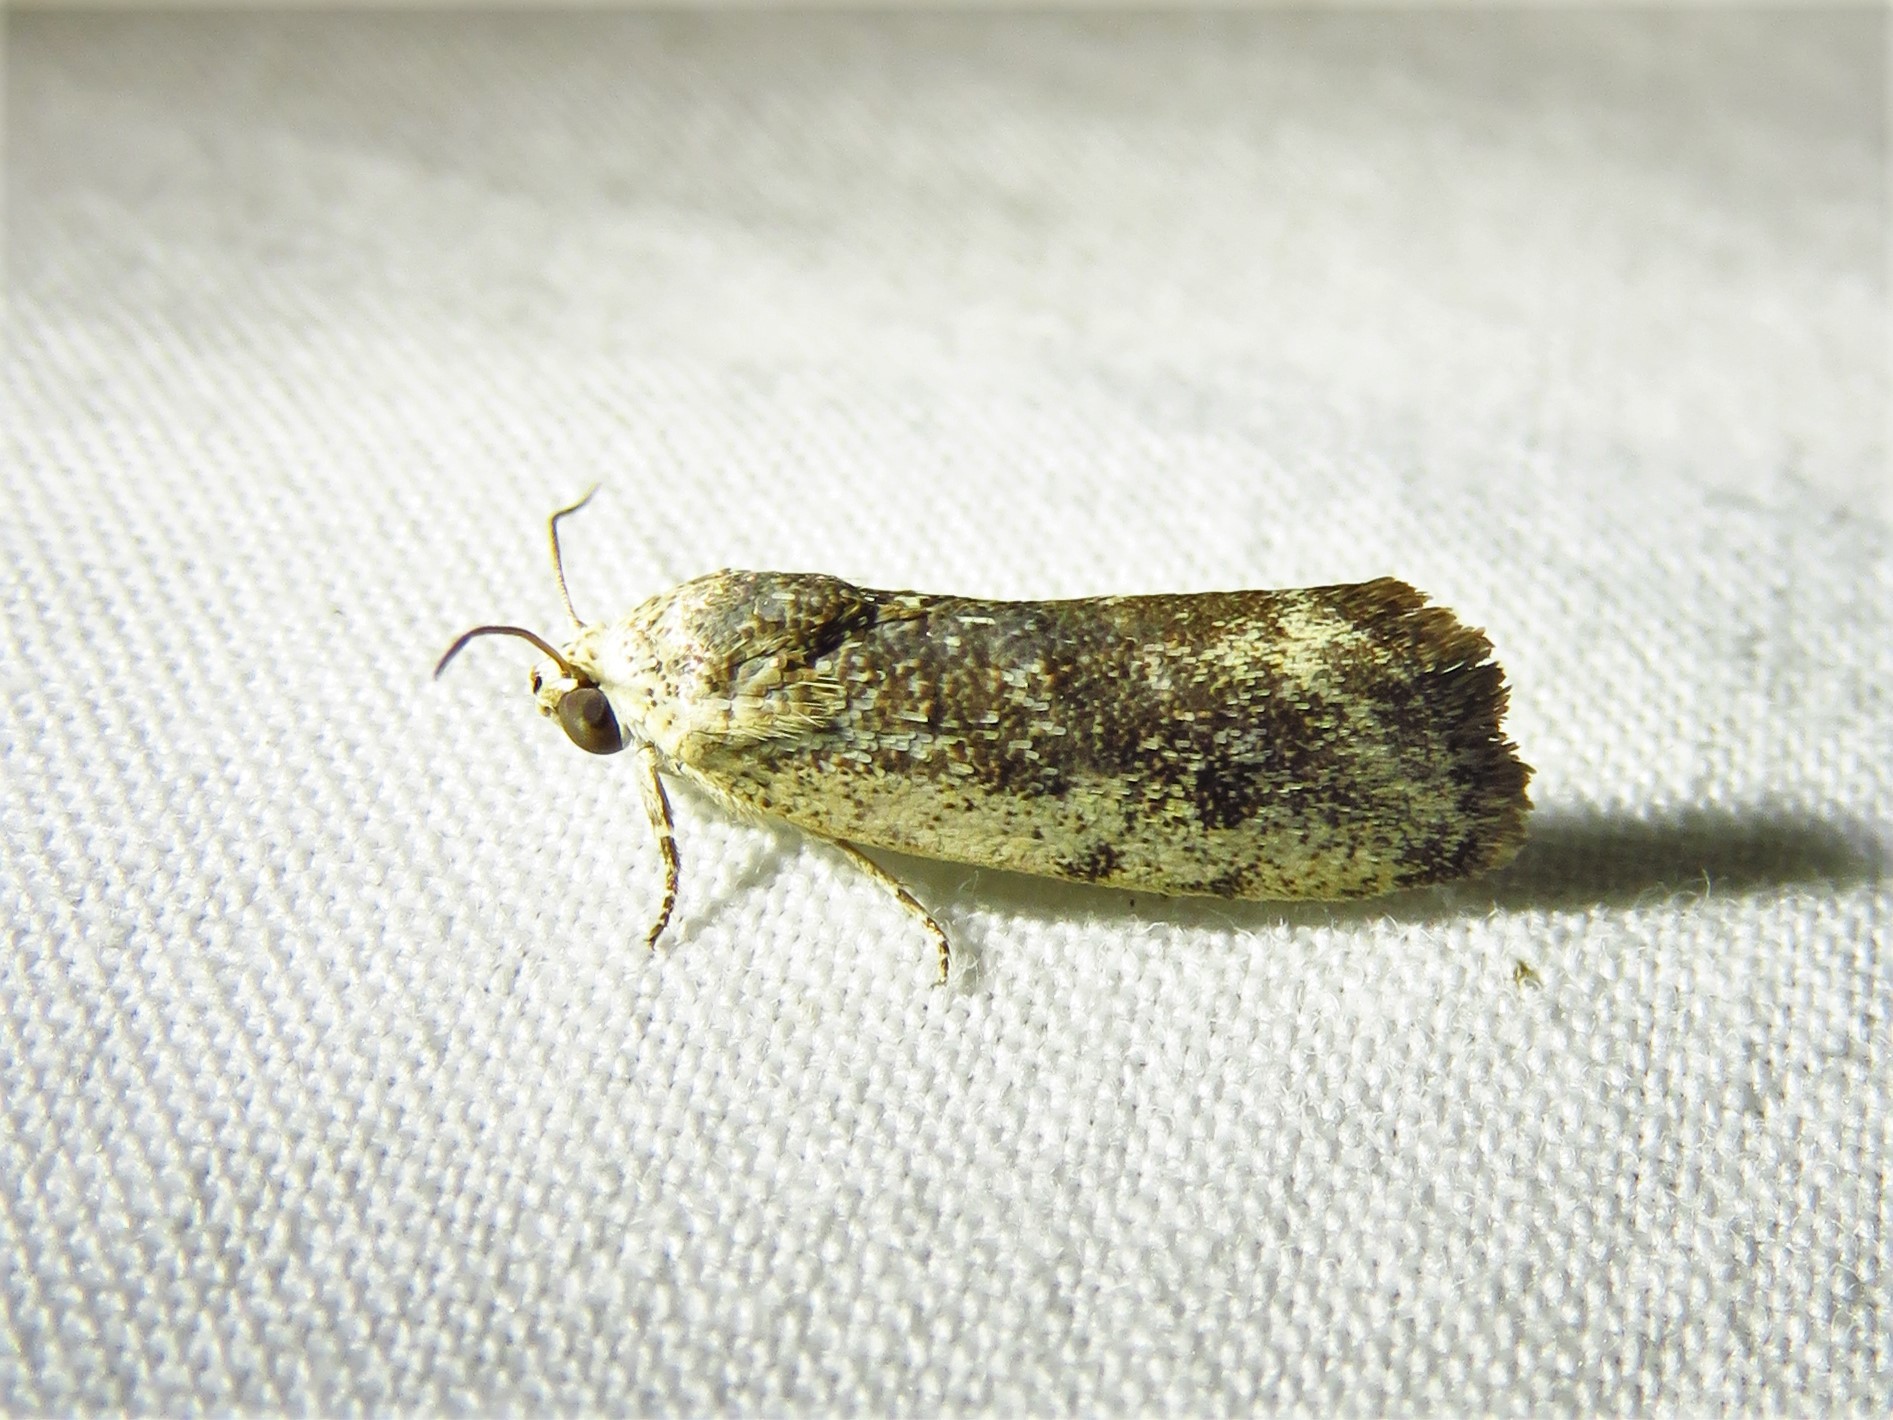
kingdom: Animalia
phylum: Arthropoda
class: Insecta
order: Lepidoptera
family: Noctuidae
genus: Acontia
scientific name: Acontia fasciatella
